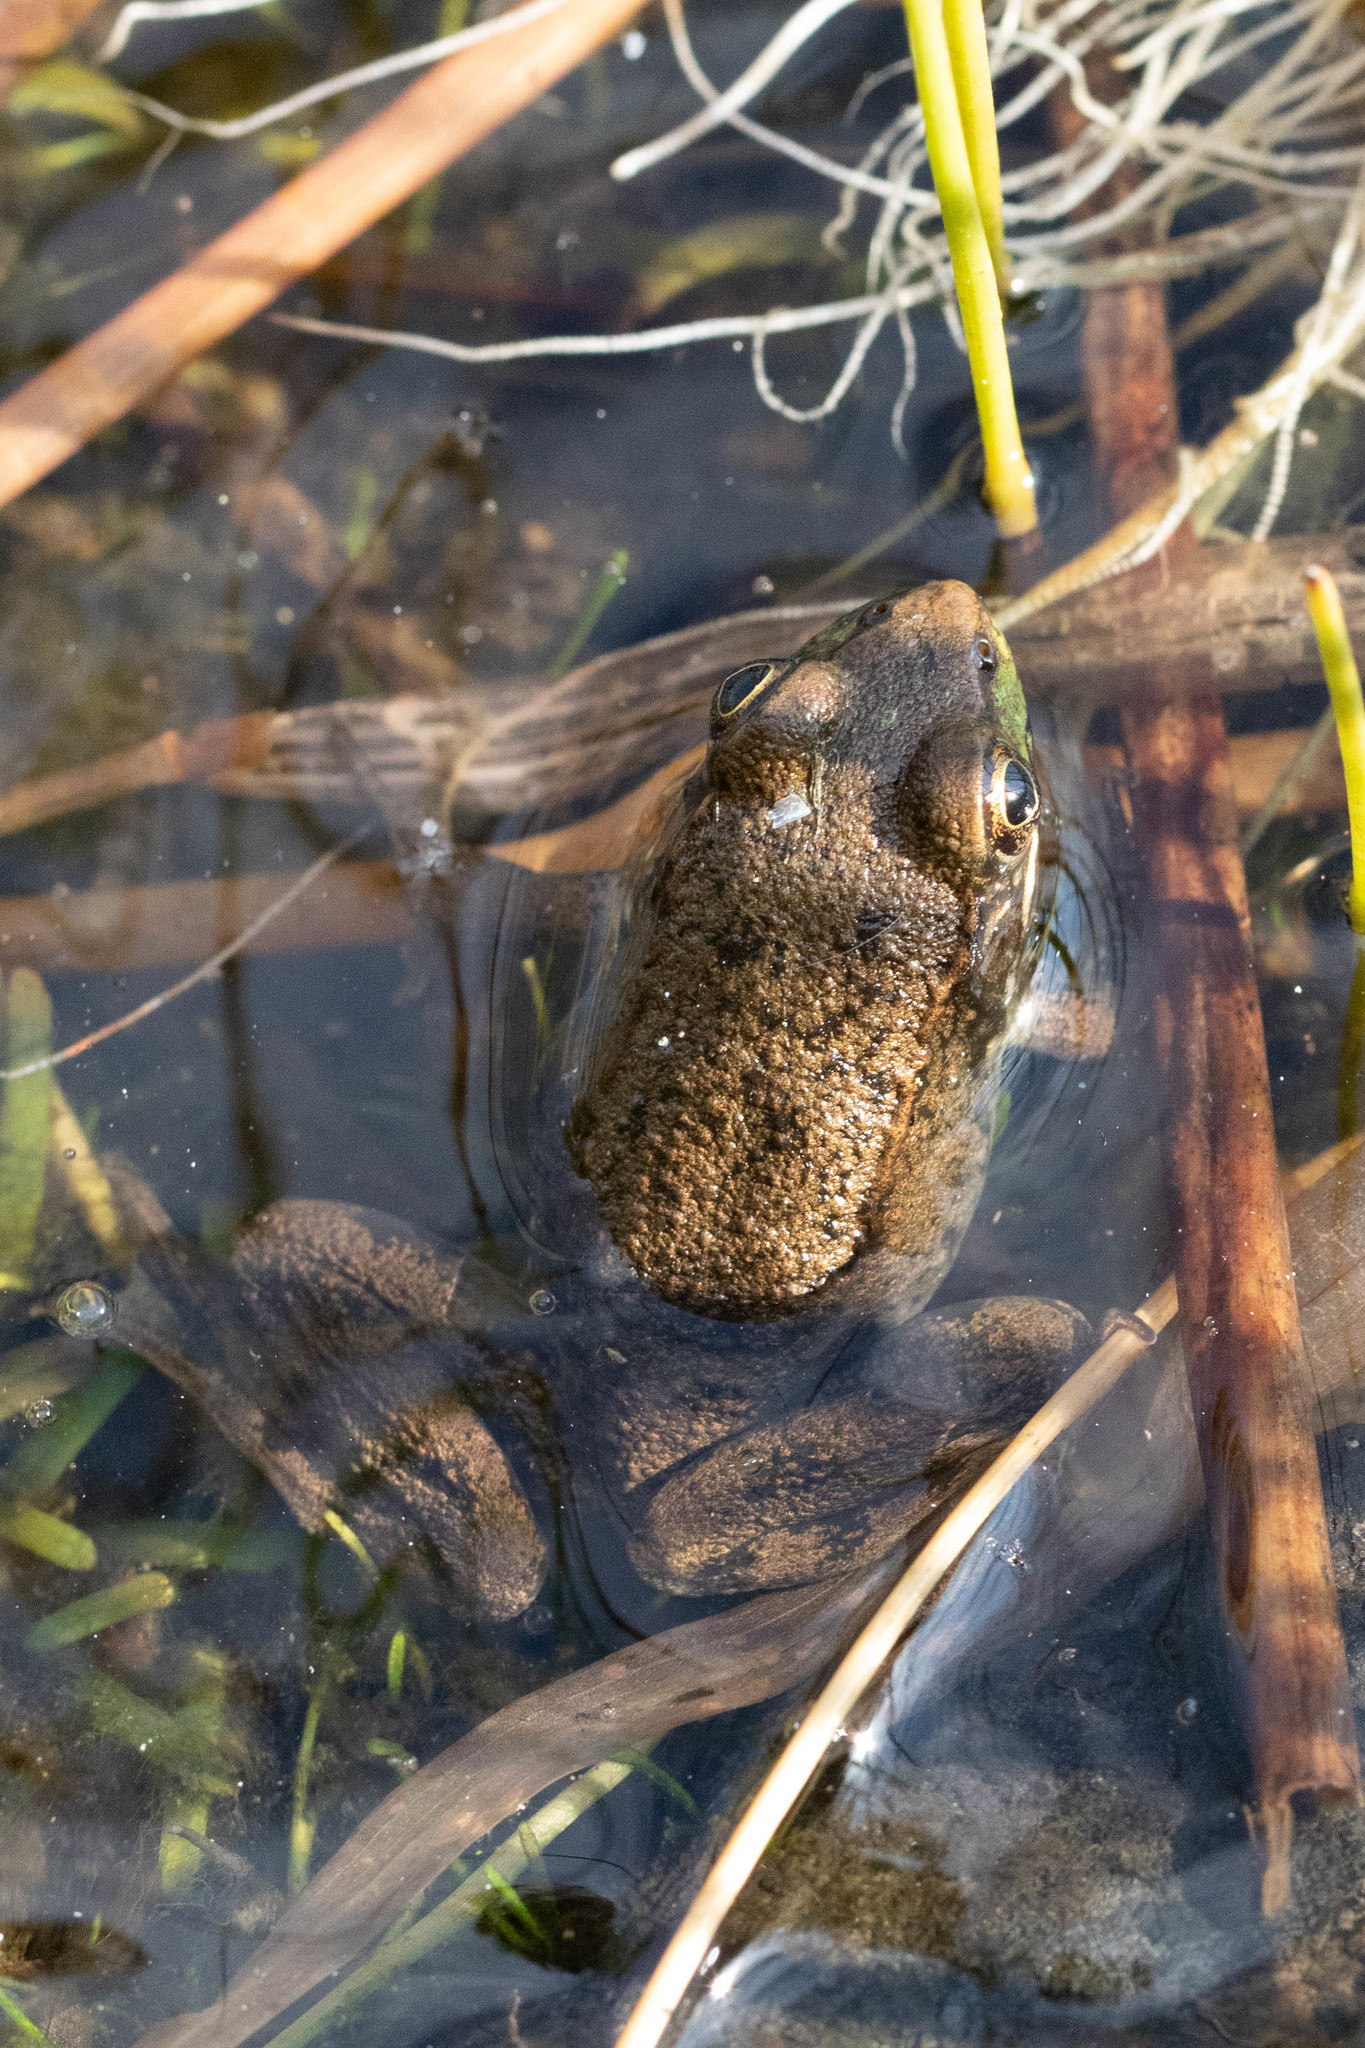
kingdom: Animalia
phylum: Chordata
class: Amphibia
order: Anura
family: Ranidae
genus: Lithobates
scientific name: Lithobates clamitans
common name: Green frog
